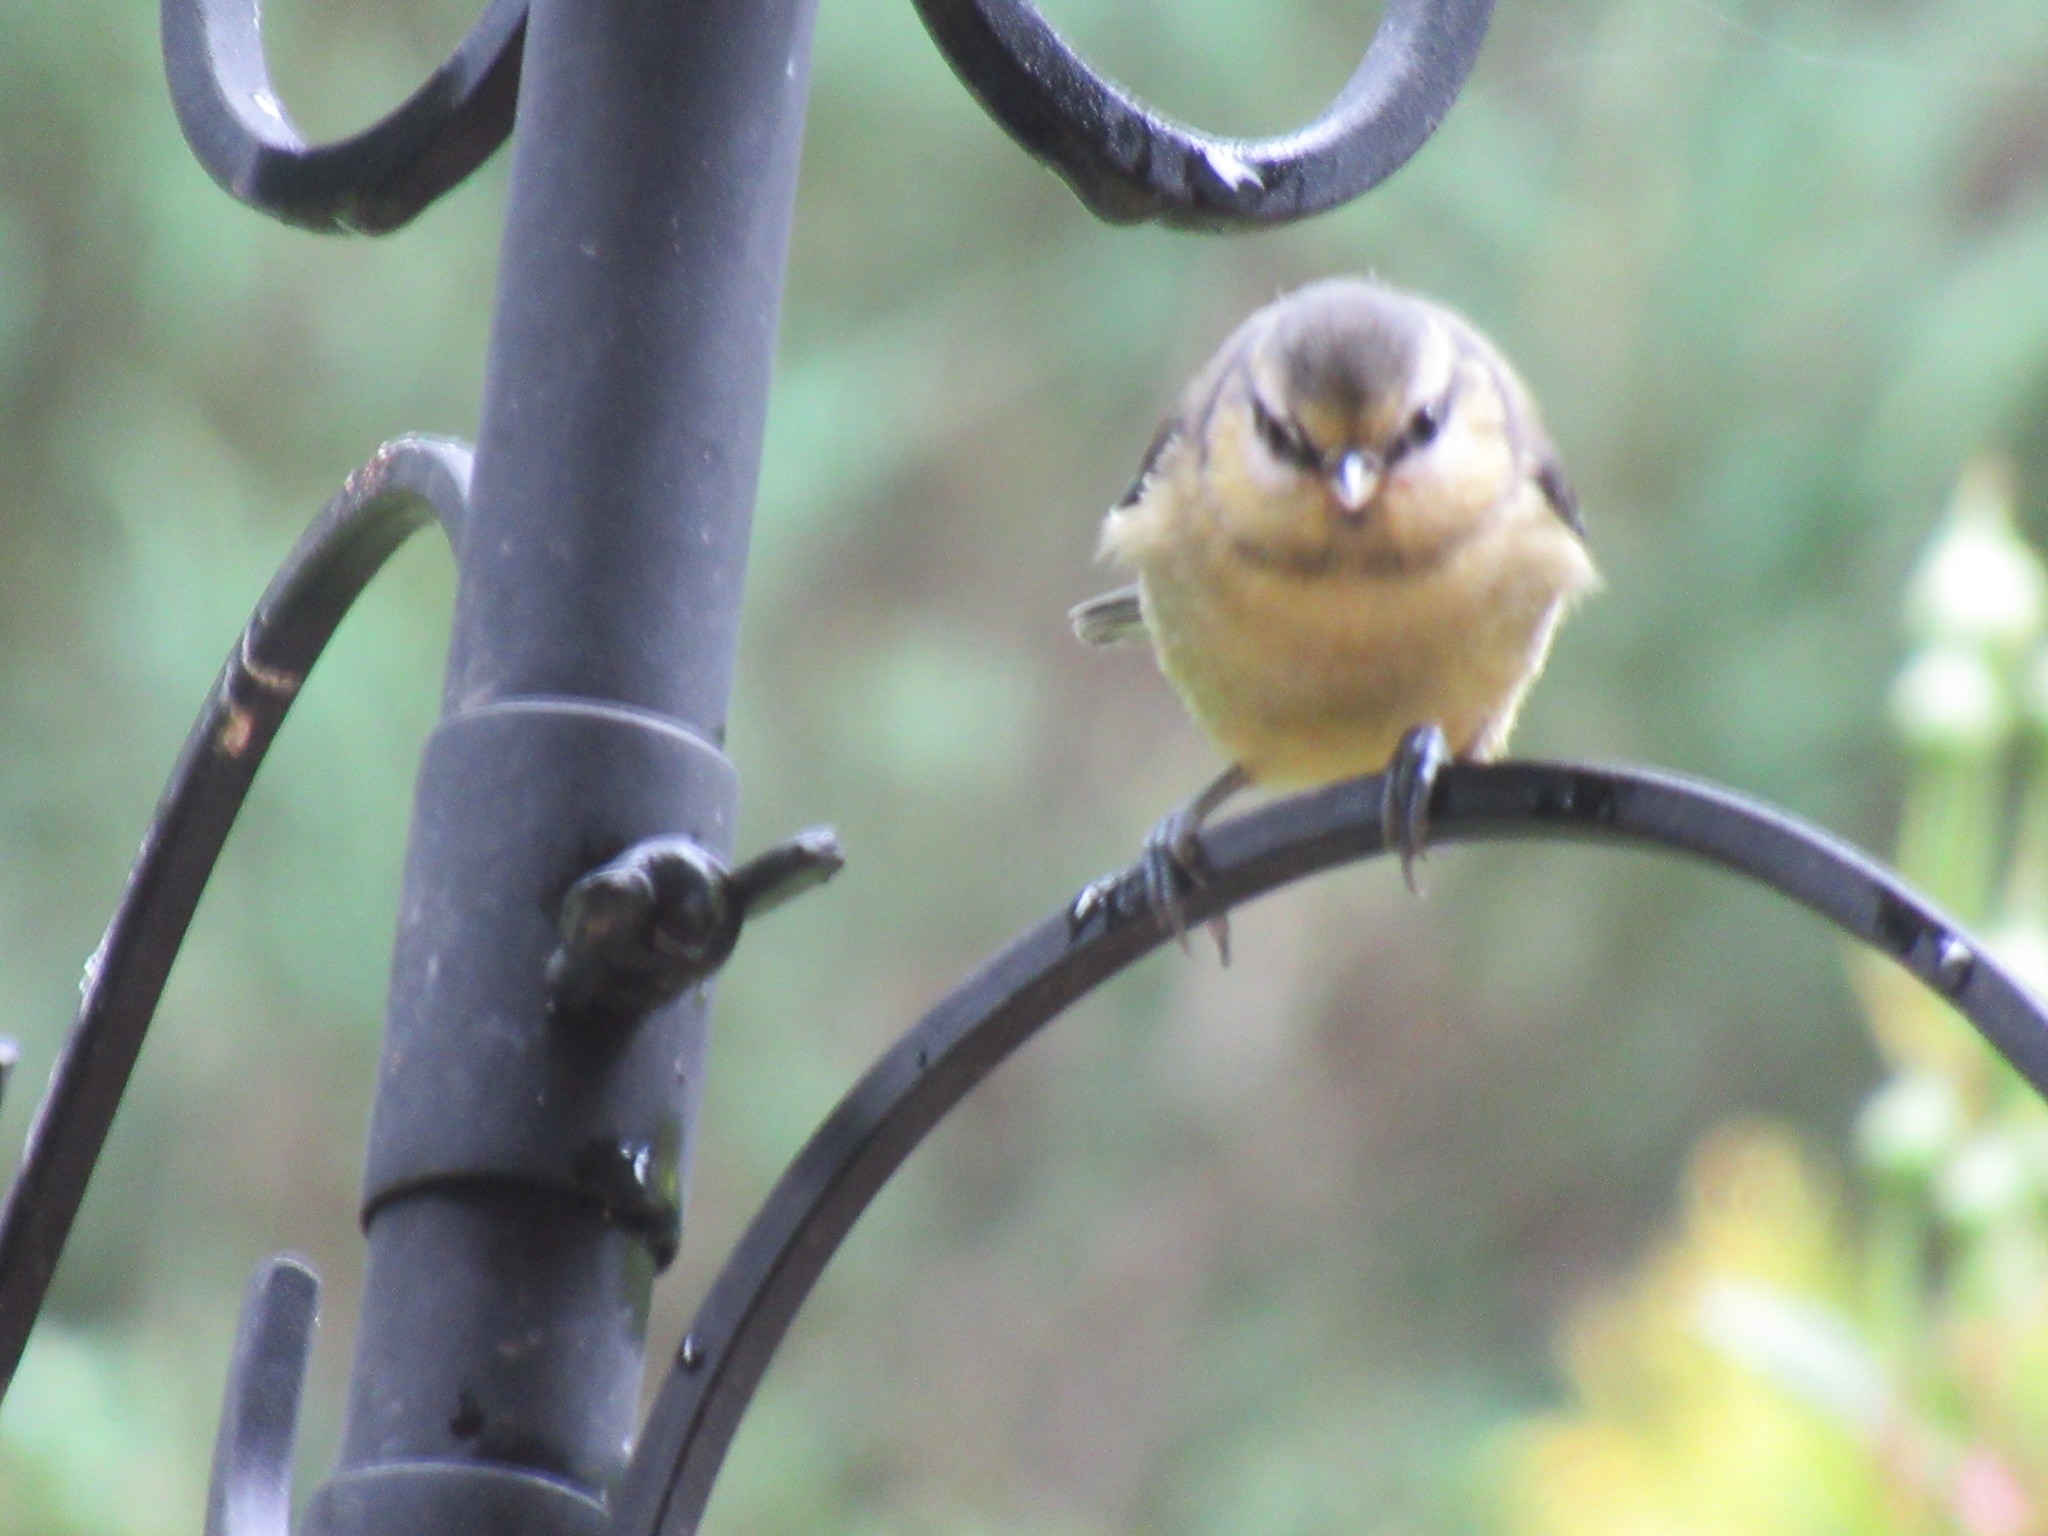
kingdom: Animalia
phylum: Chordata
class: Aves
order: Passeriformes
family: Paridae
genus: Cyanistes
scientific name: Cyanistes caeruleus
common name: Eurasian blue tit
